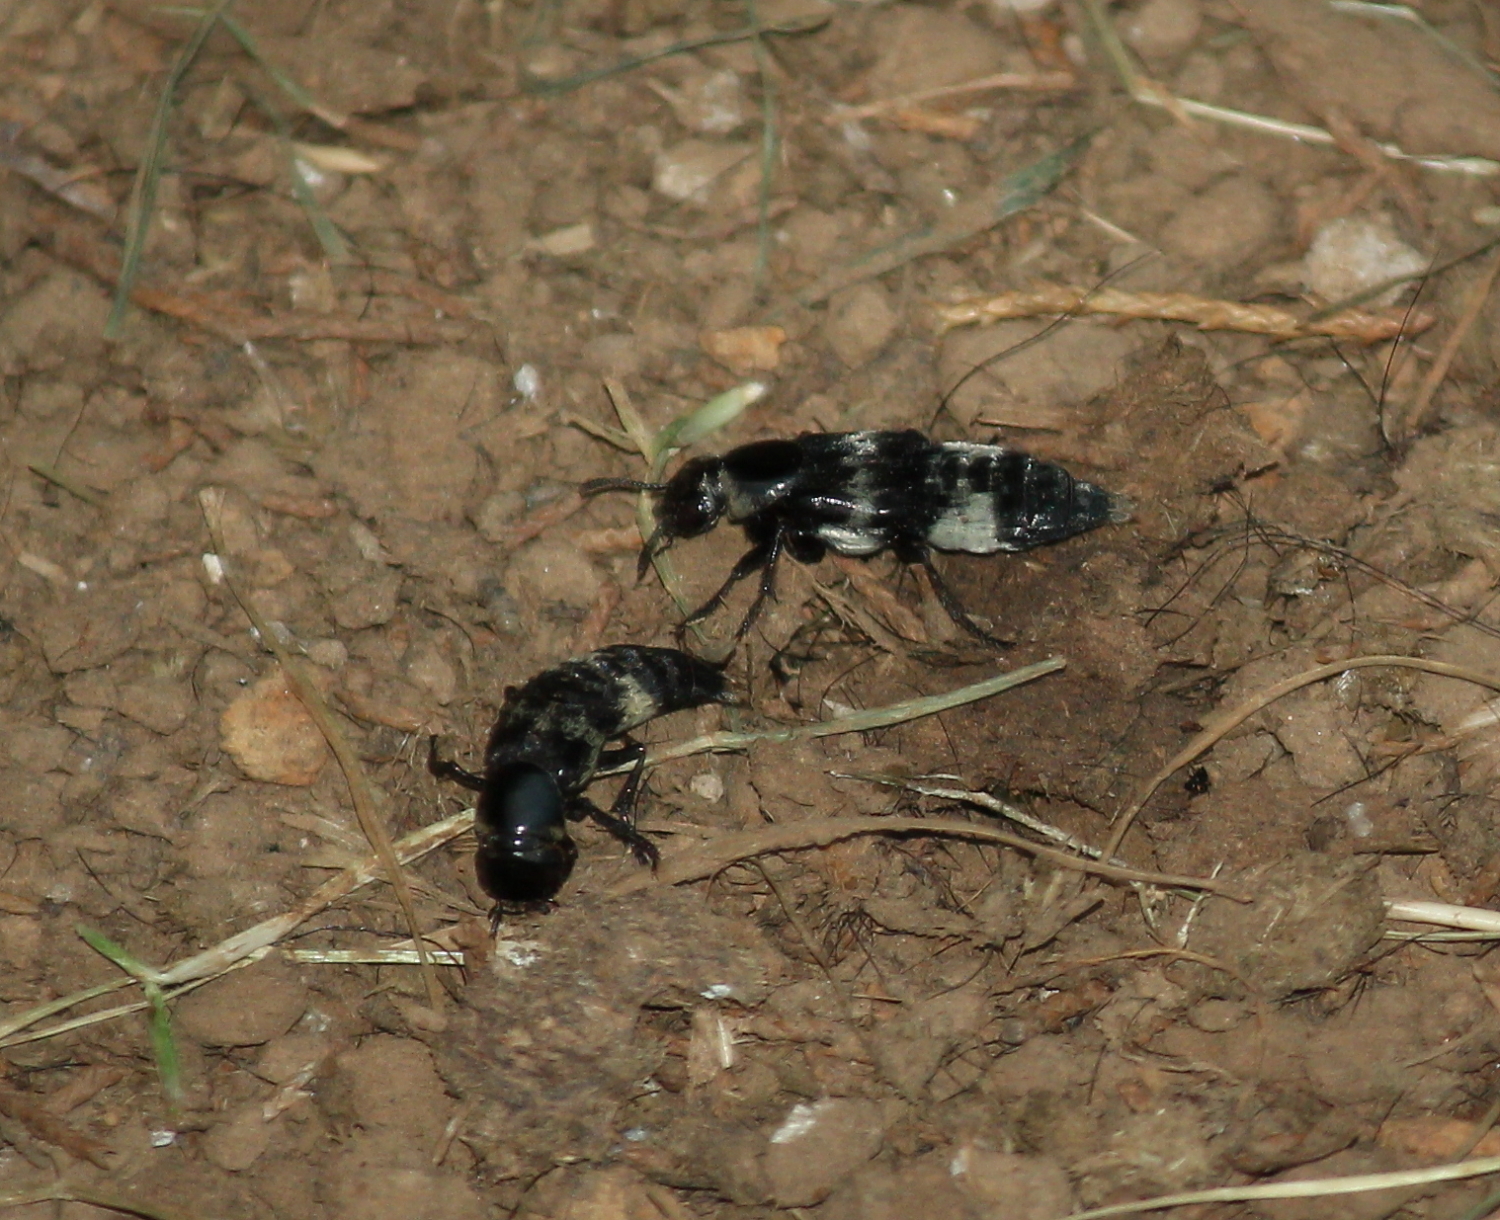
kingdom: Animalia
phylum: Arthropoda
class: Insecta
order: Coleoptera
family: Staphylinidae
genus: Creophilus
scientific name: Creophilus maxillosus
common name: Hairy rove beetle
